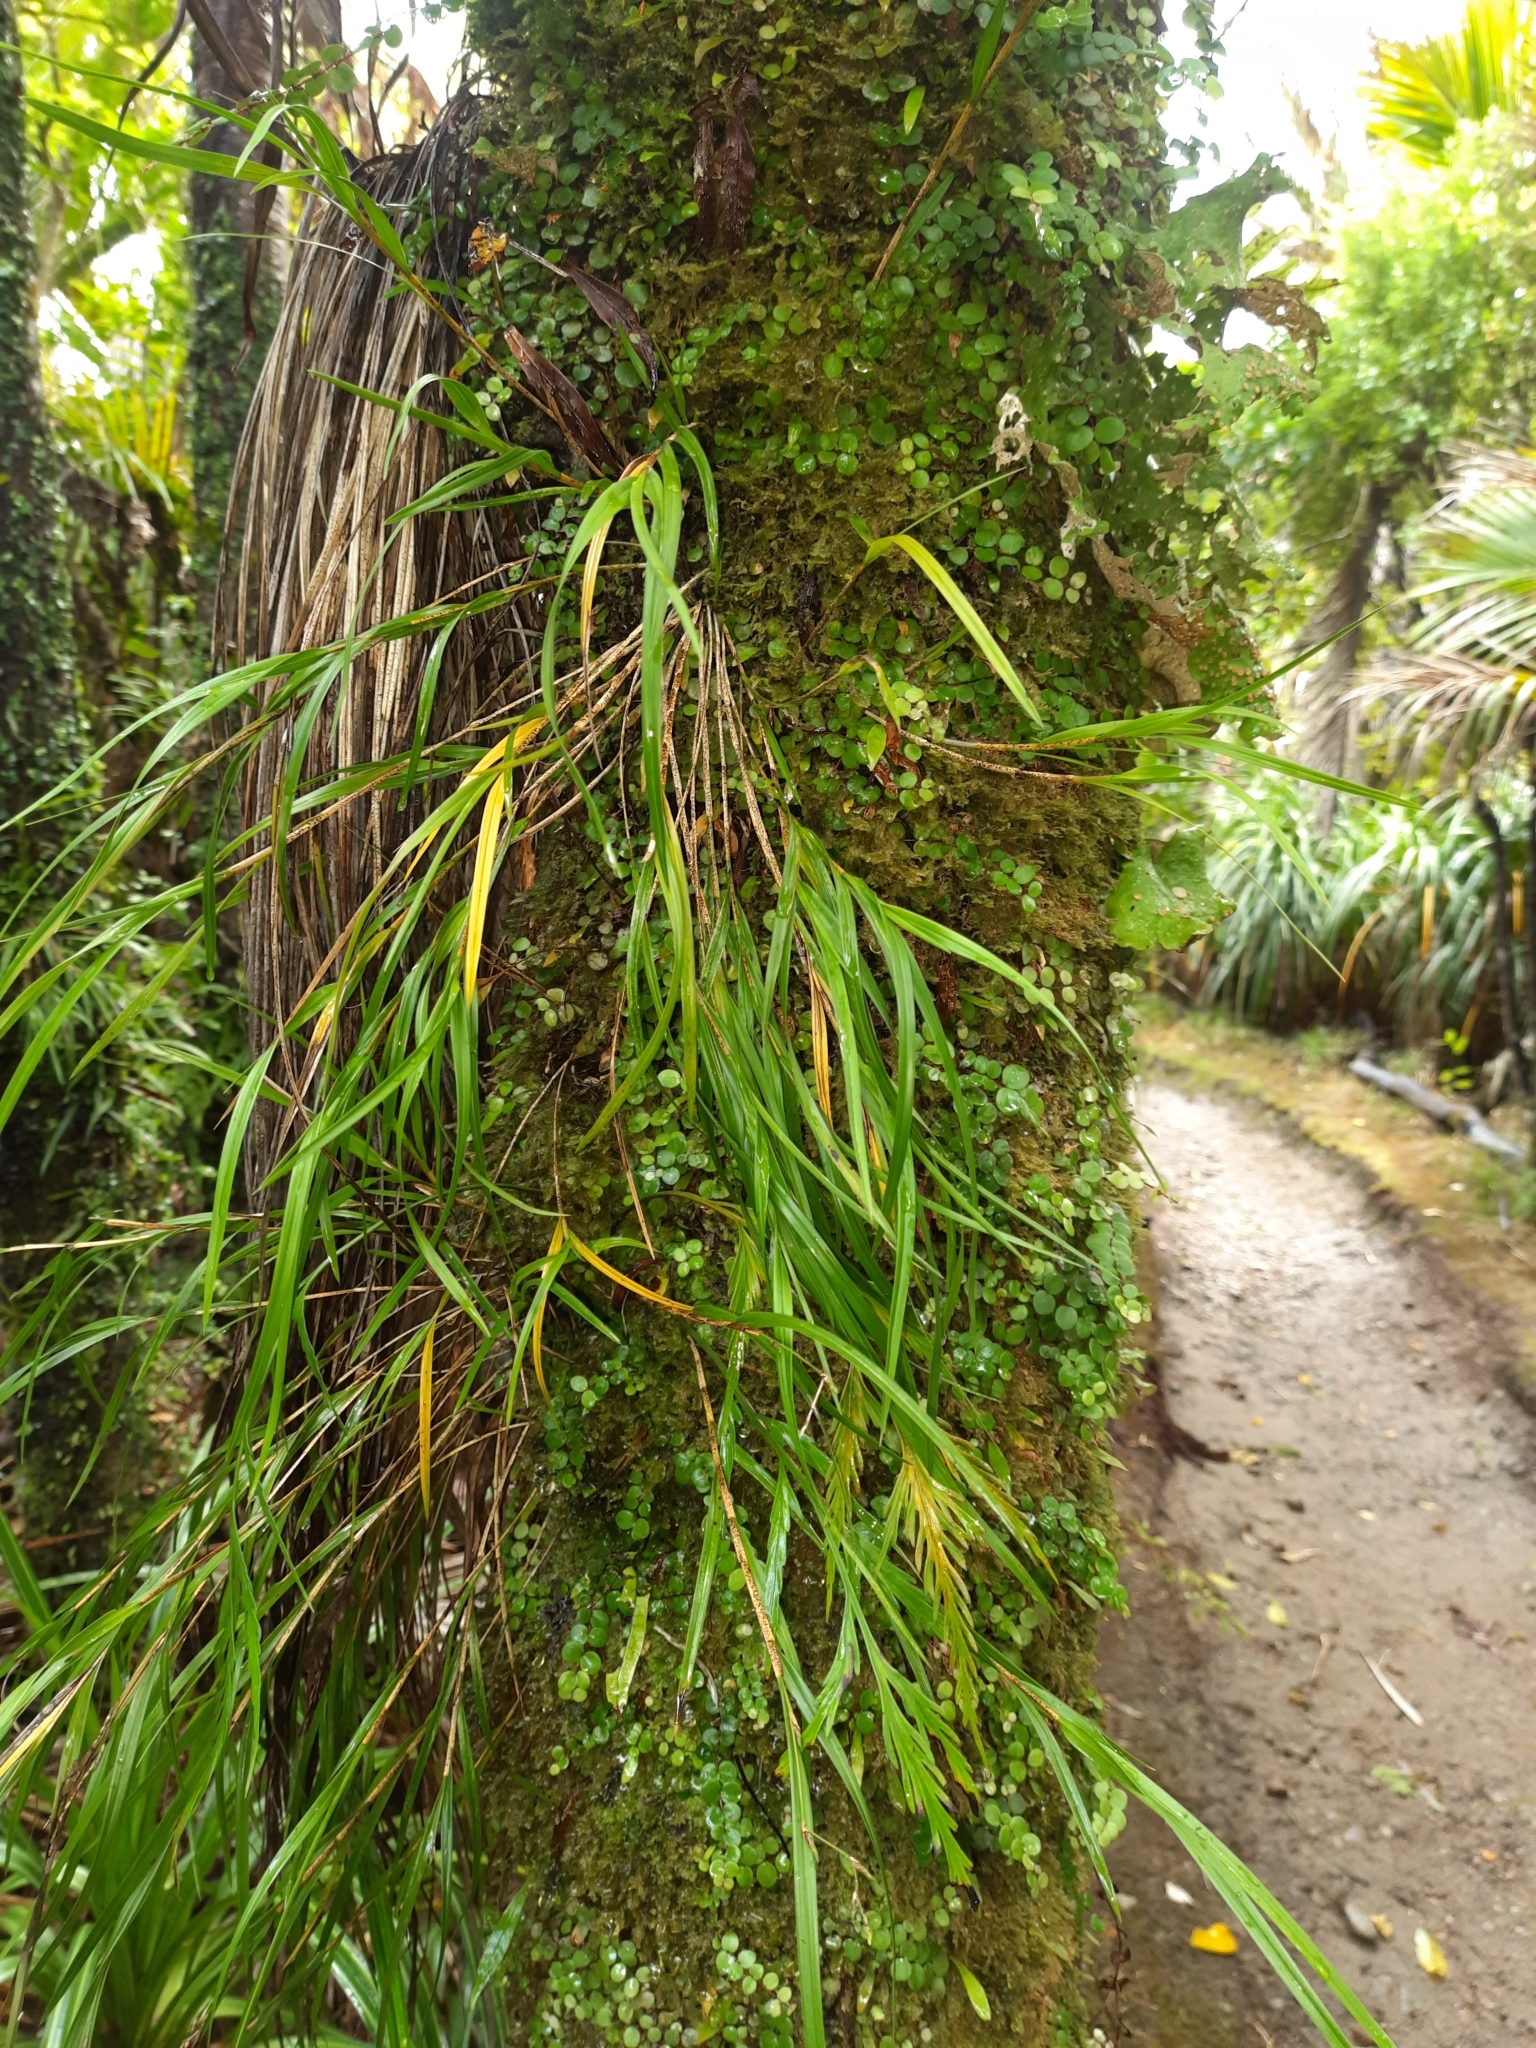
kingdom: Plantae
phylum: Tracheophyta
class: Liliopsida
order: Asparagales
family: Orchidaceae
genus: Earina
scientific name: Earina mucronata
